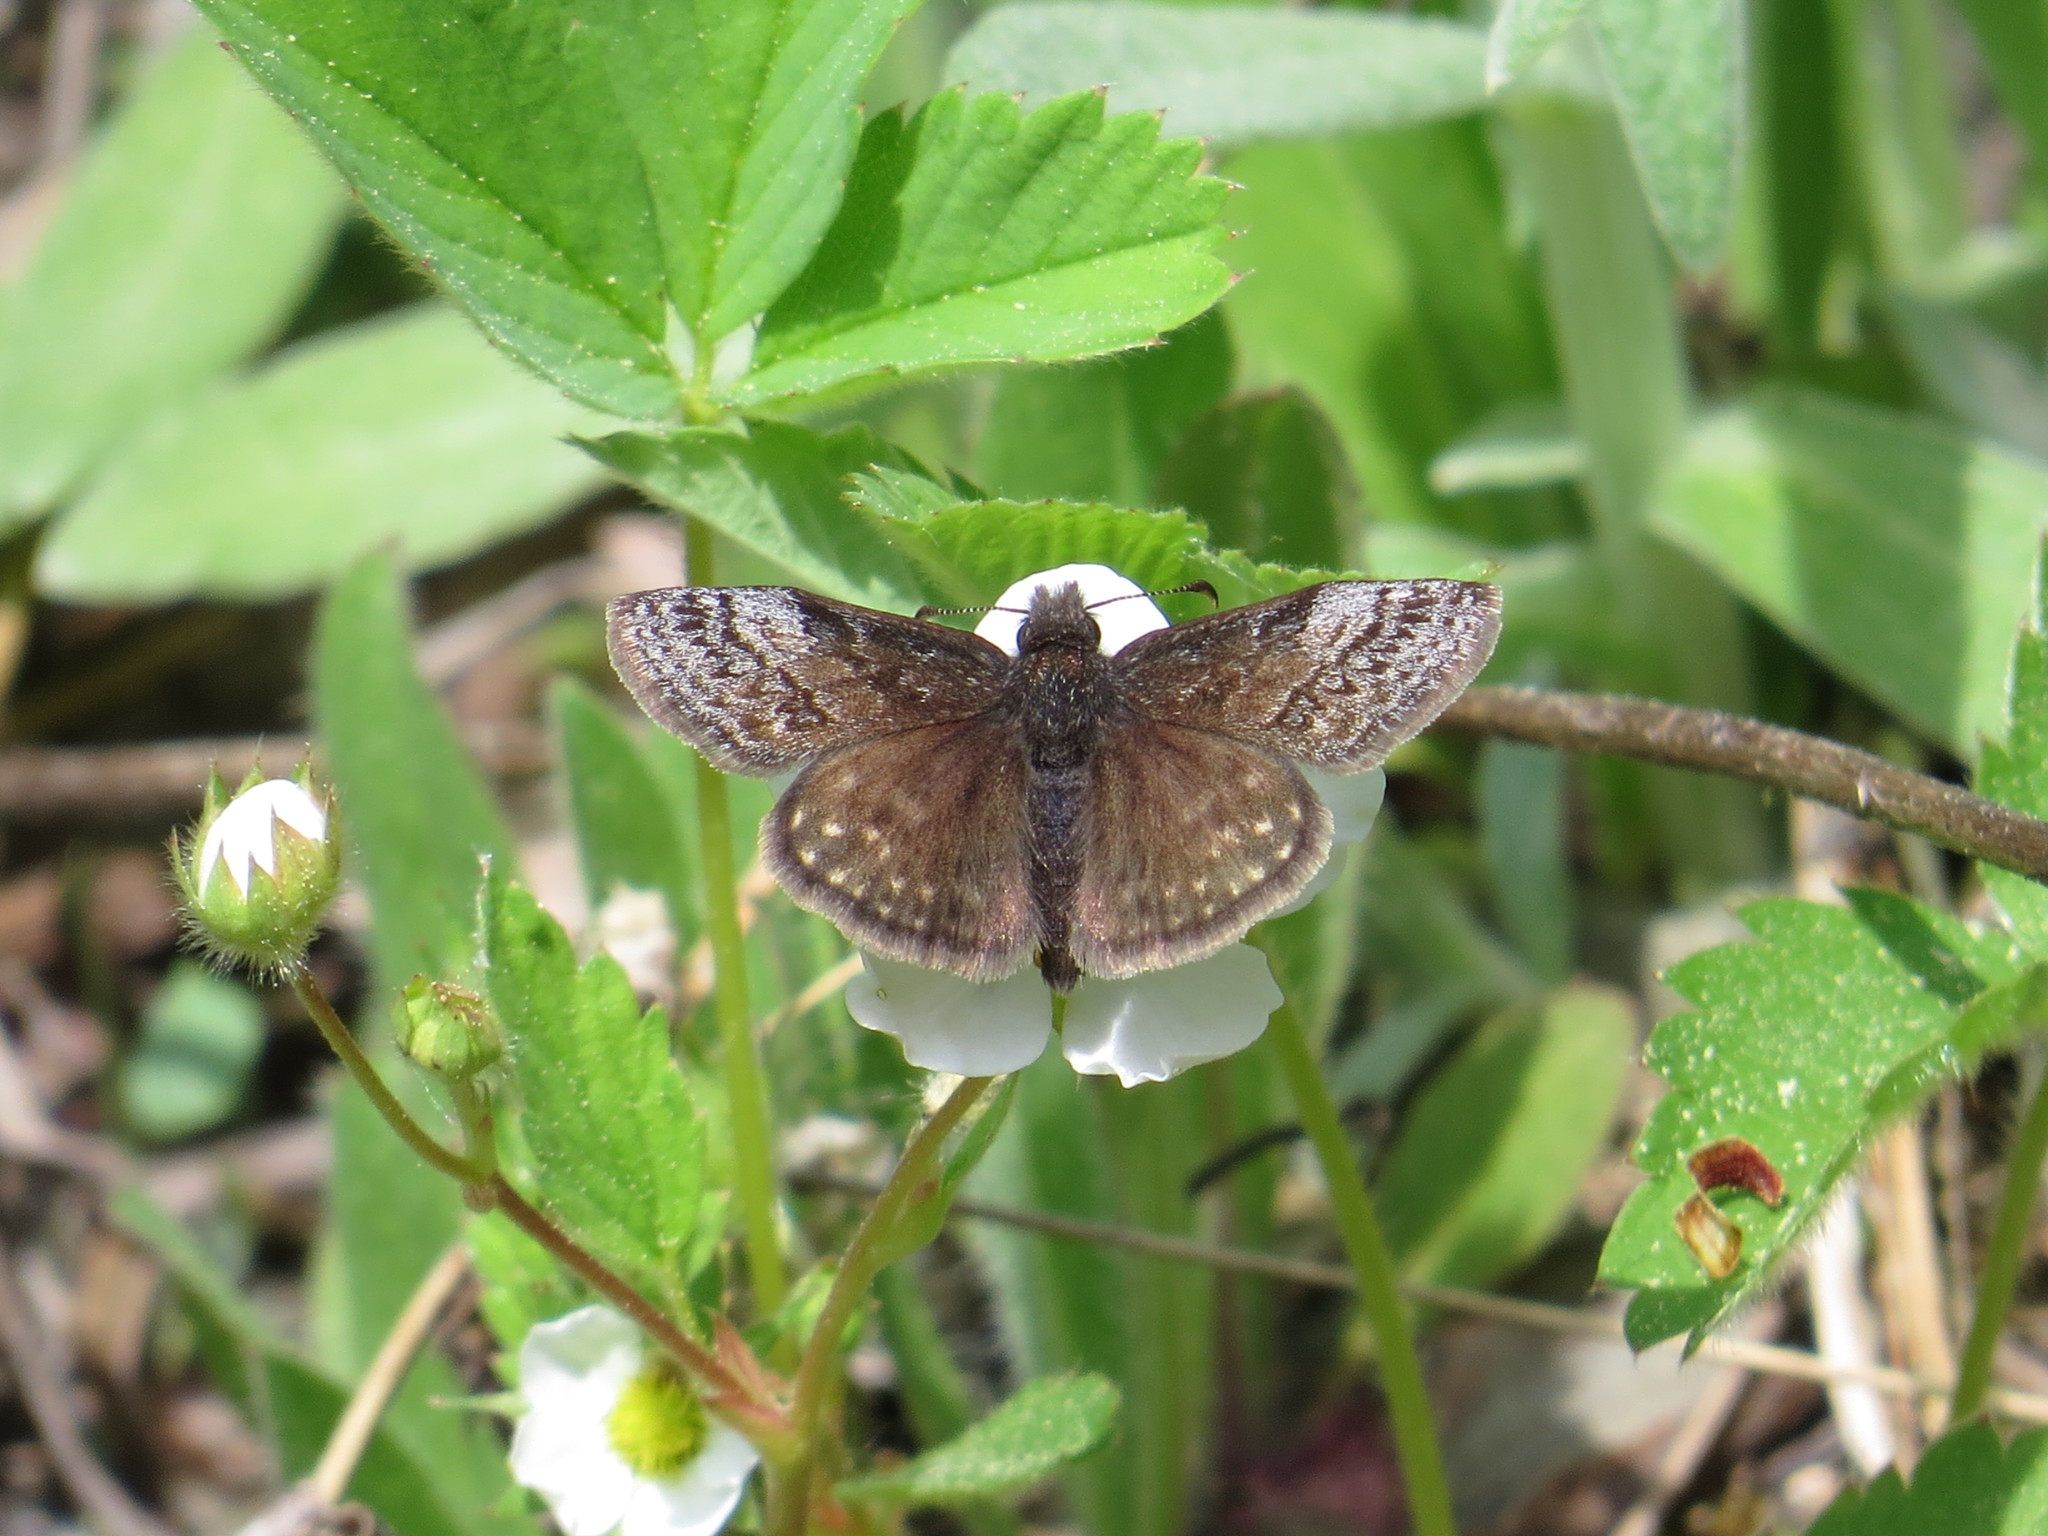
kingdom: Animalia
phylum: Arthropoda
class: Insecta
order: Lepidoptera
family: Hesperiidae
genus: Erynnis
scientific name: Erynnis icelus
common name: Dreamy duskywing
